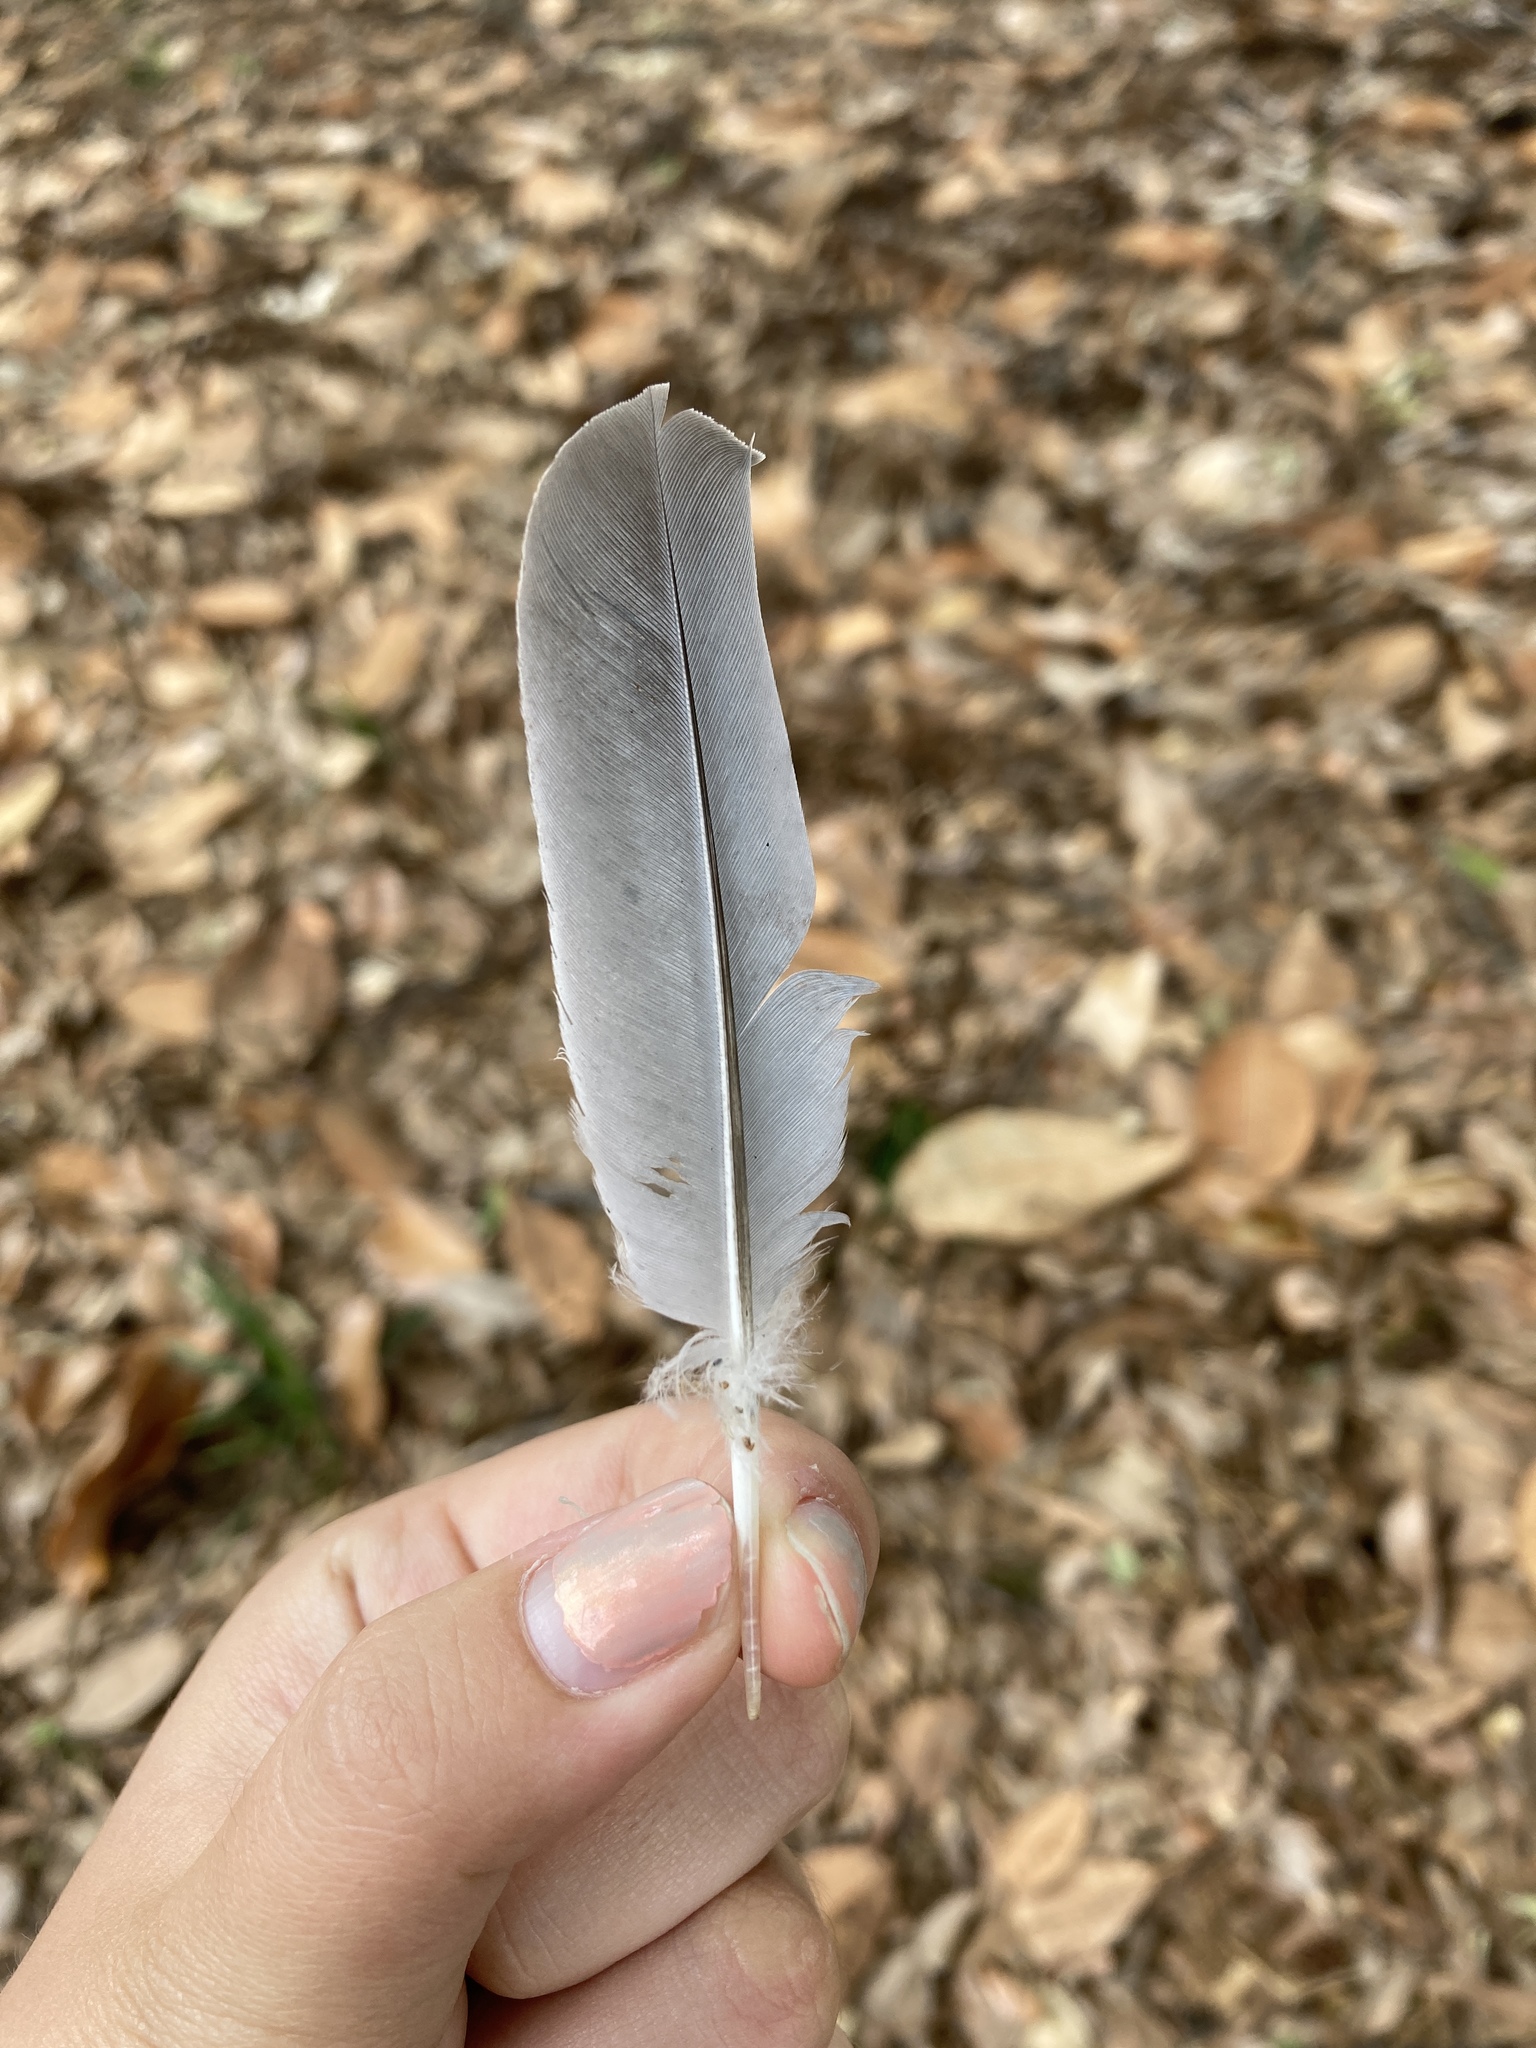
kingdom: Animalia
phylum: Chordata
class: Aves
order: Columbiformes
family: Columbidae
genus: Zenaida
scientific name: Zenaida macroura
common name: Mourning dove
